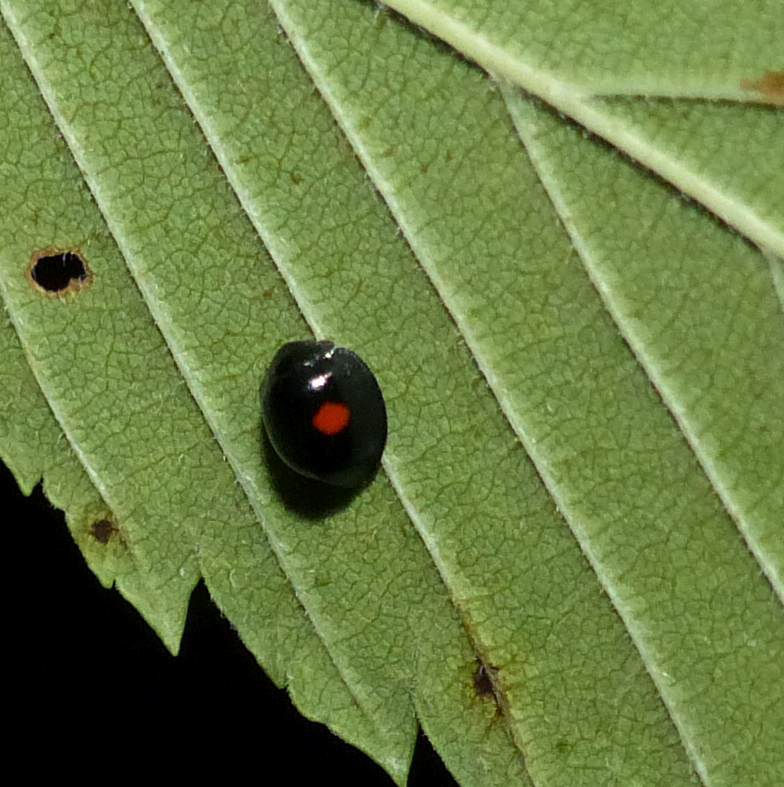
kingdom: Animalia
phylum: Arthropoda
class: Insecta
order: Coleoptera
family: Coccinellidae
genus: Chilocorus
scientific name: Chilocorus stigma
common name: Twicestabbed lady beetle
